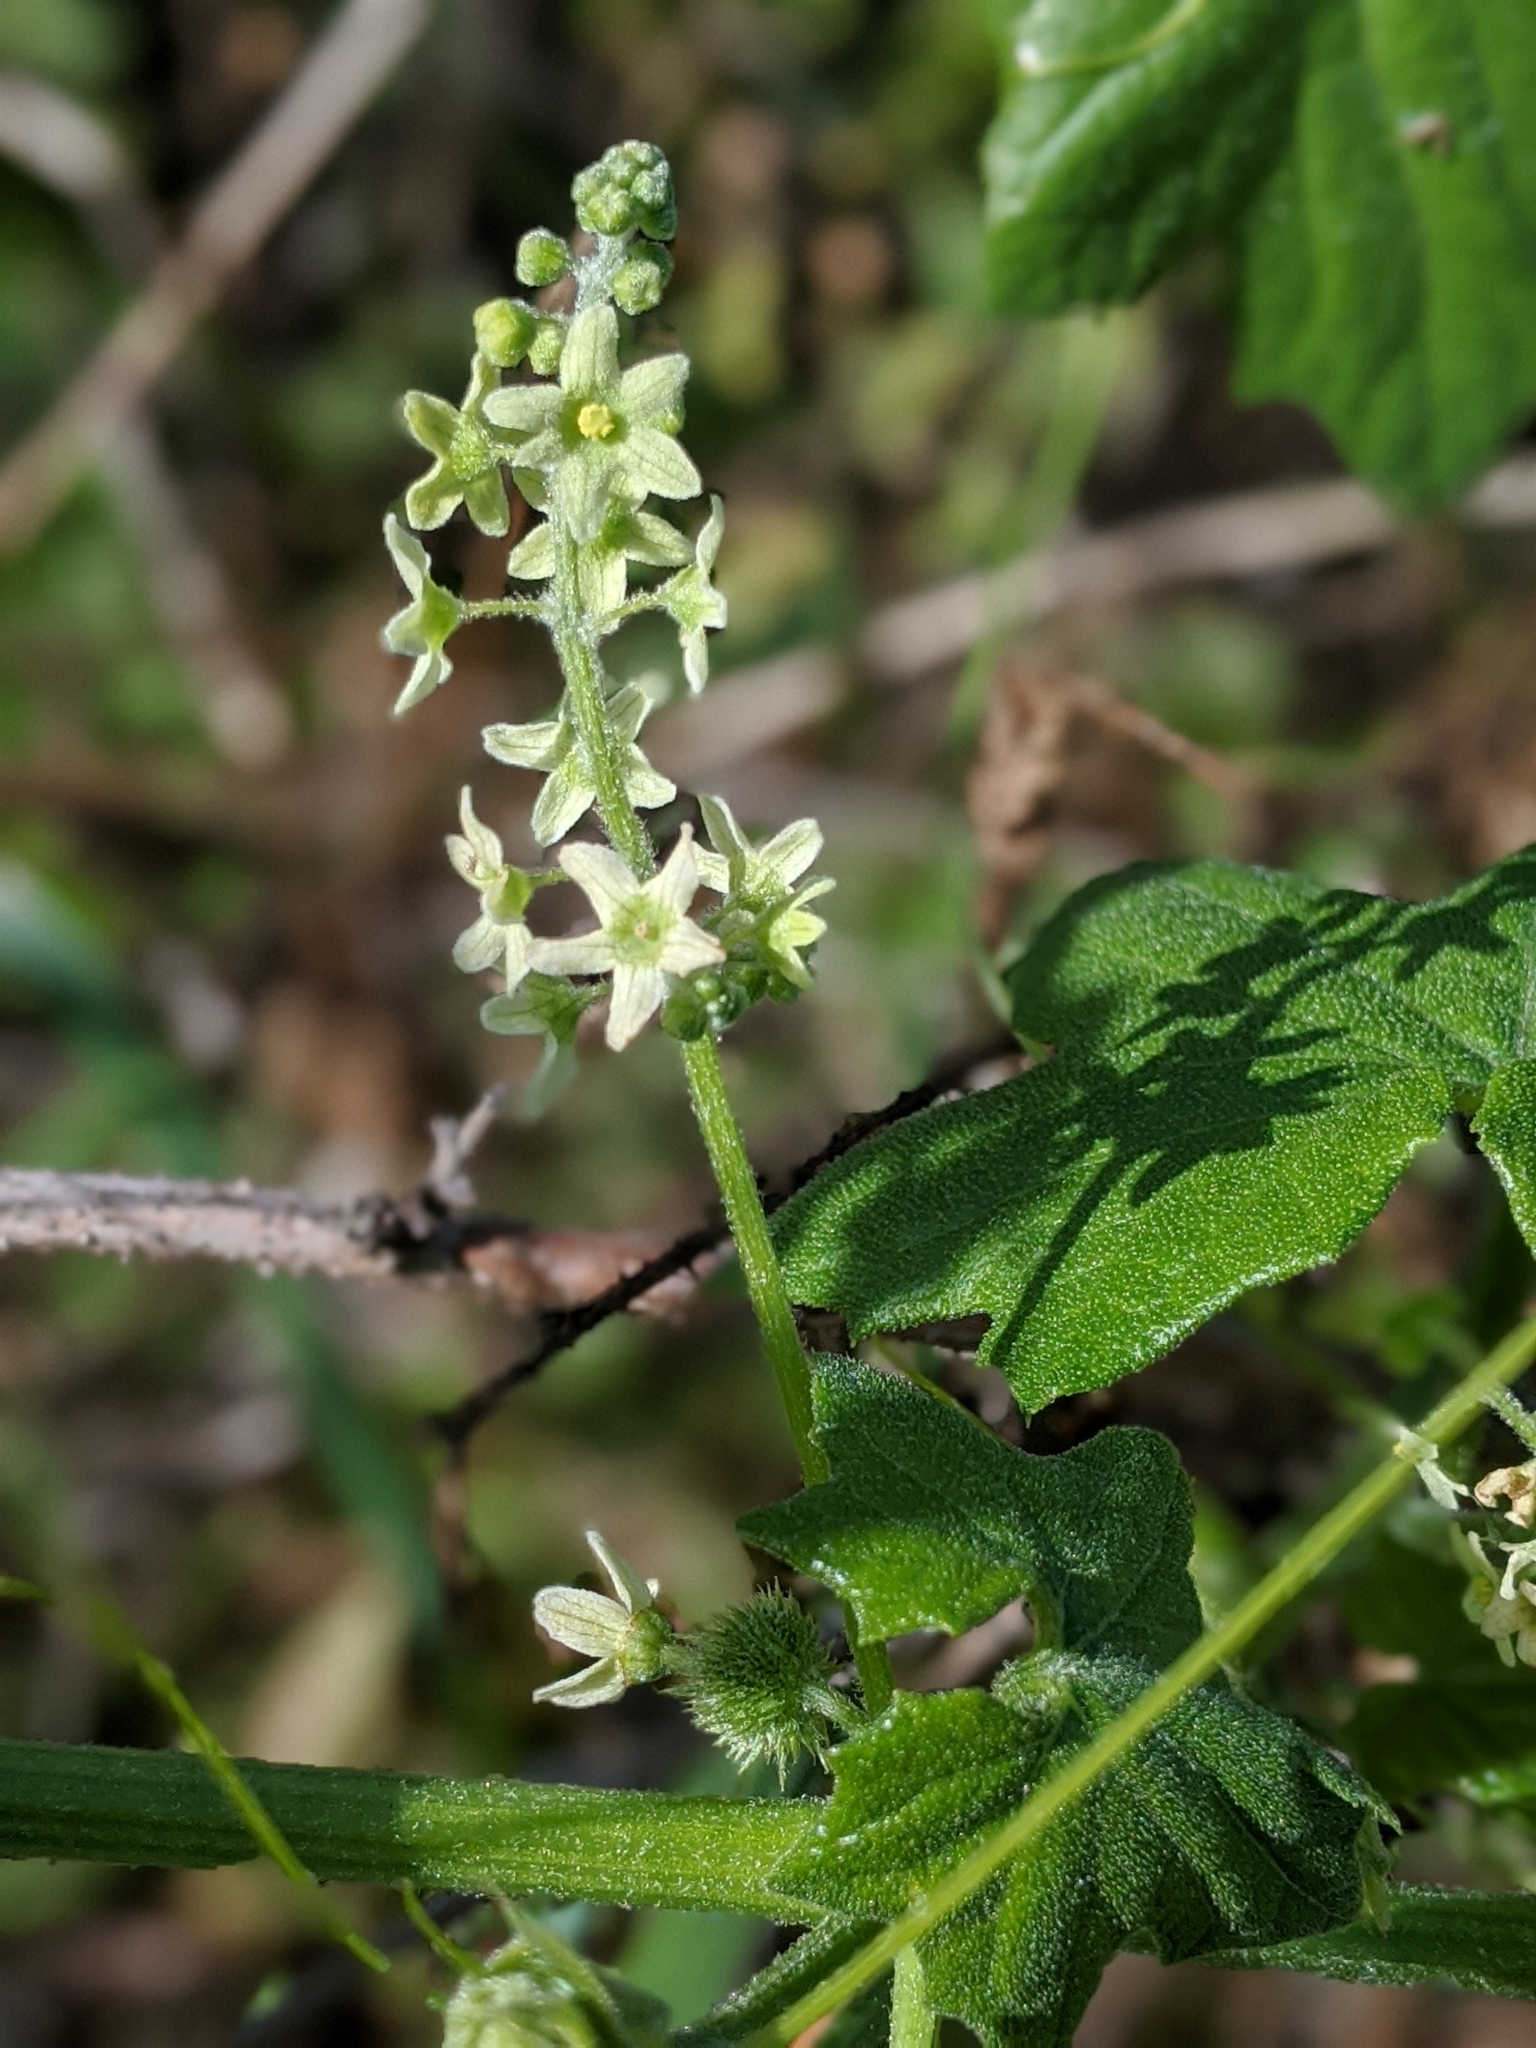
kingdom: Plantae
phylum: Tracheophyta
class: Magnoliopsida
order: Cucurbitales
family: Cucurbitaceae
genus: Marah
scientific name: Marah fabacea
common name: California manroot
